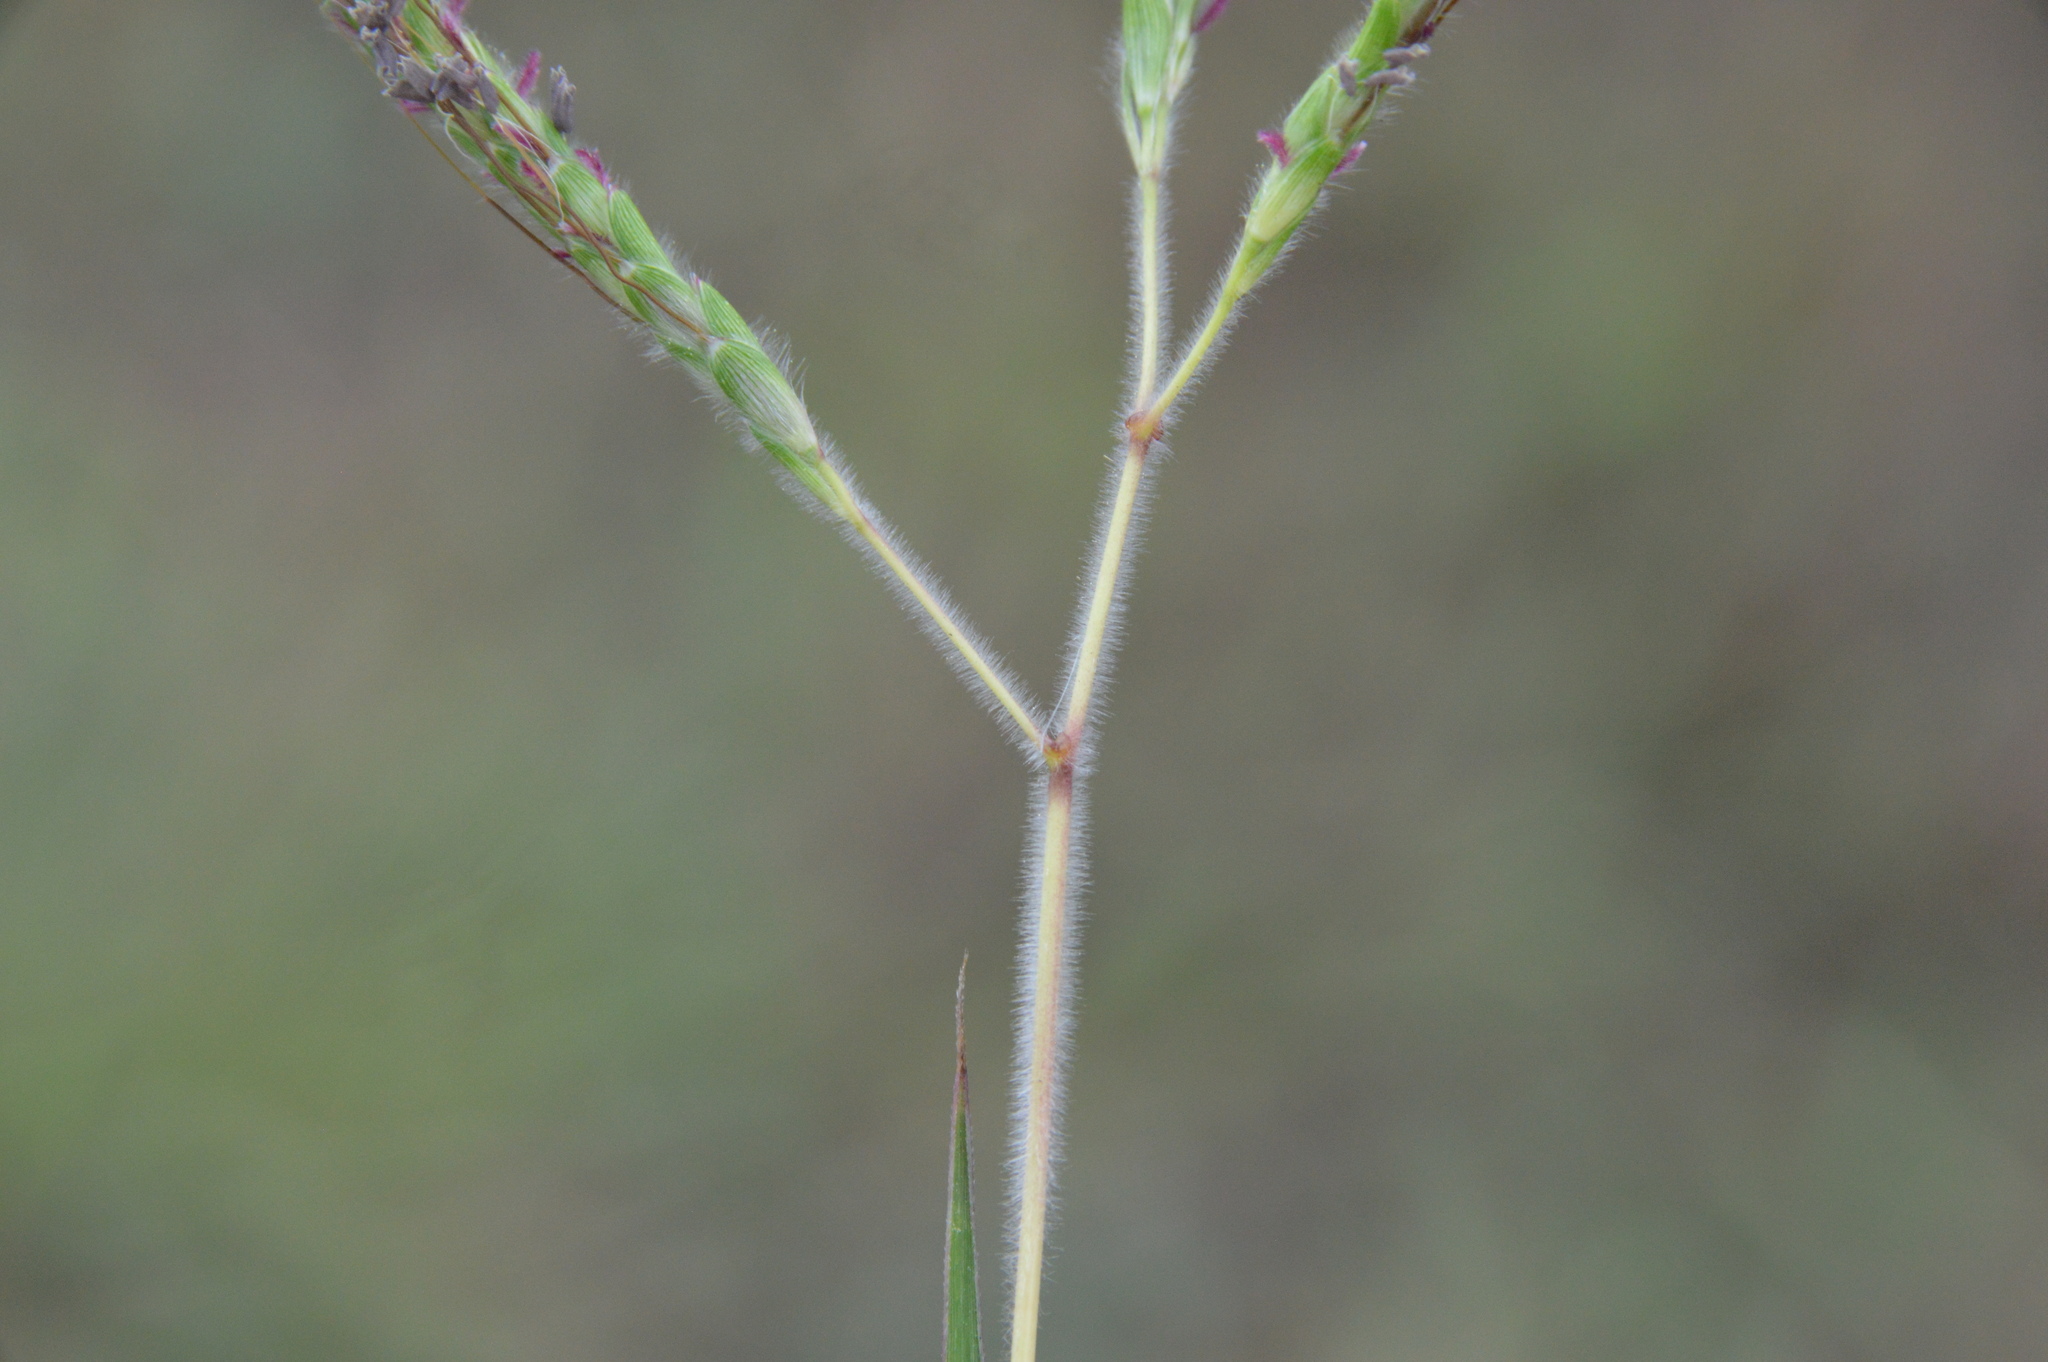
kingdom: Plantae
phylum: Tracheophyta
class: Liliopsida
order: Poales
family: Poaceae
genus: Dichanthium
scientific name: Dichanthium aristatum
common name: Angleton bluestem
